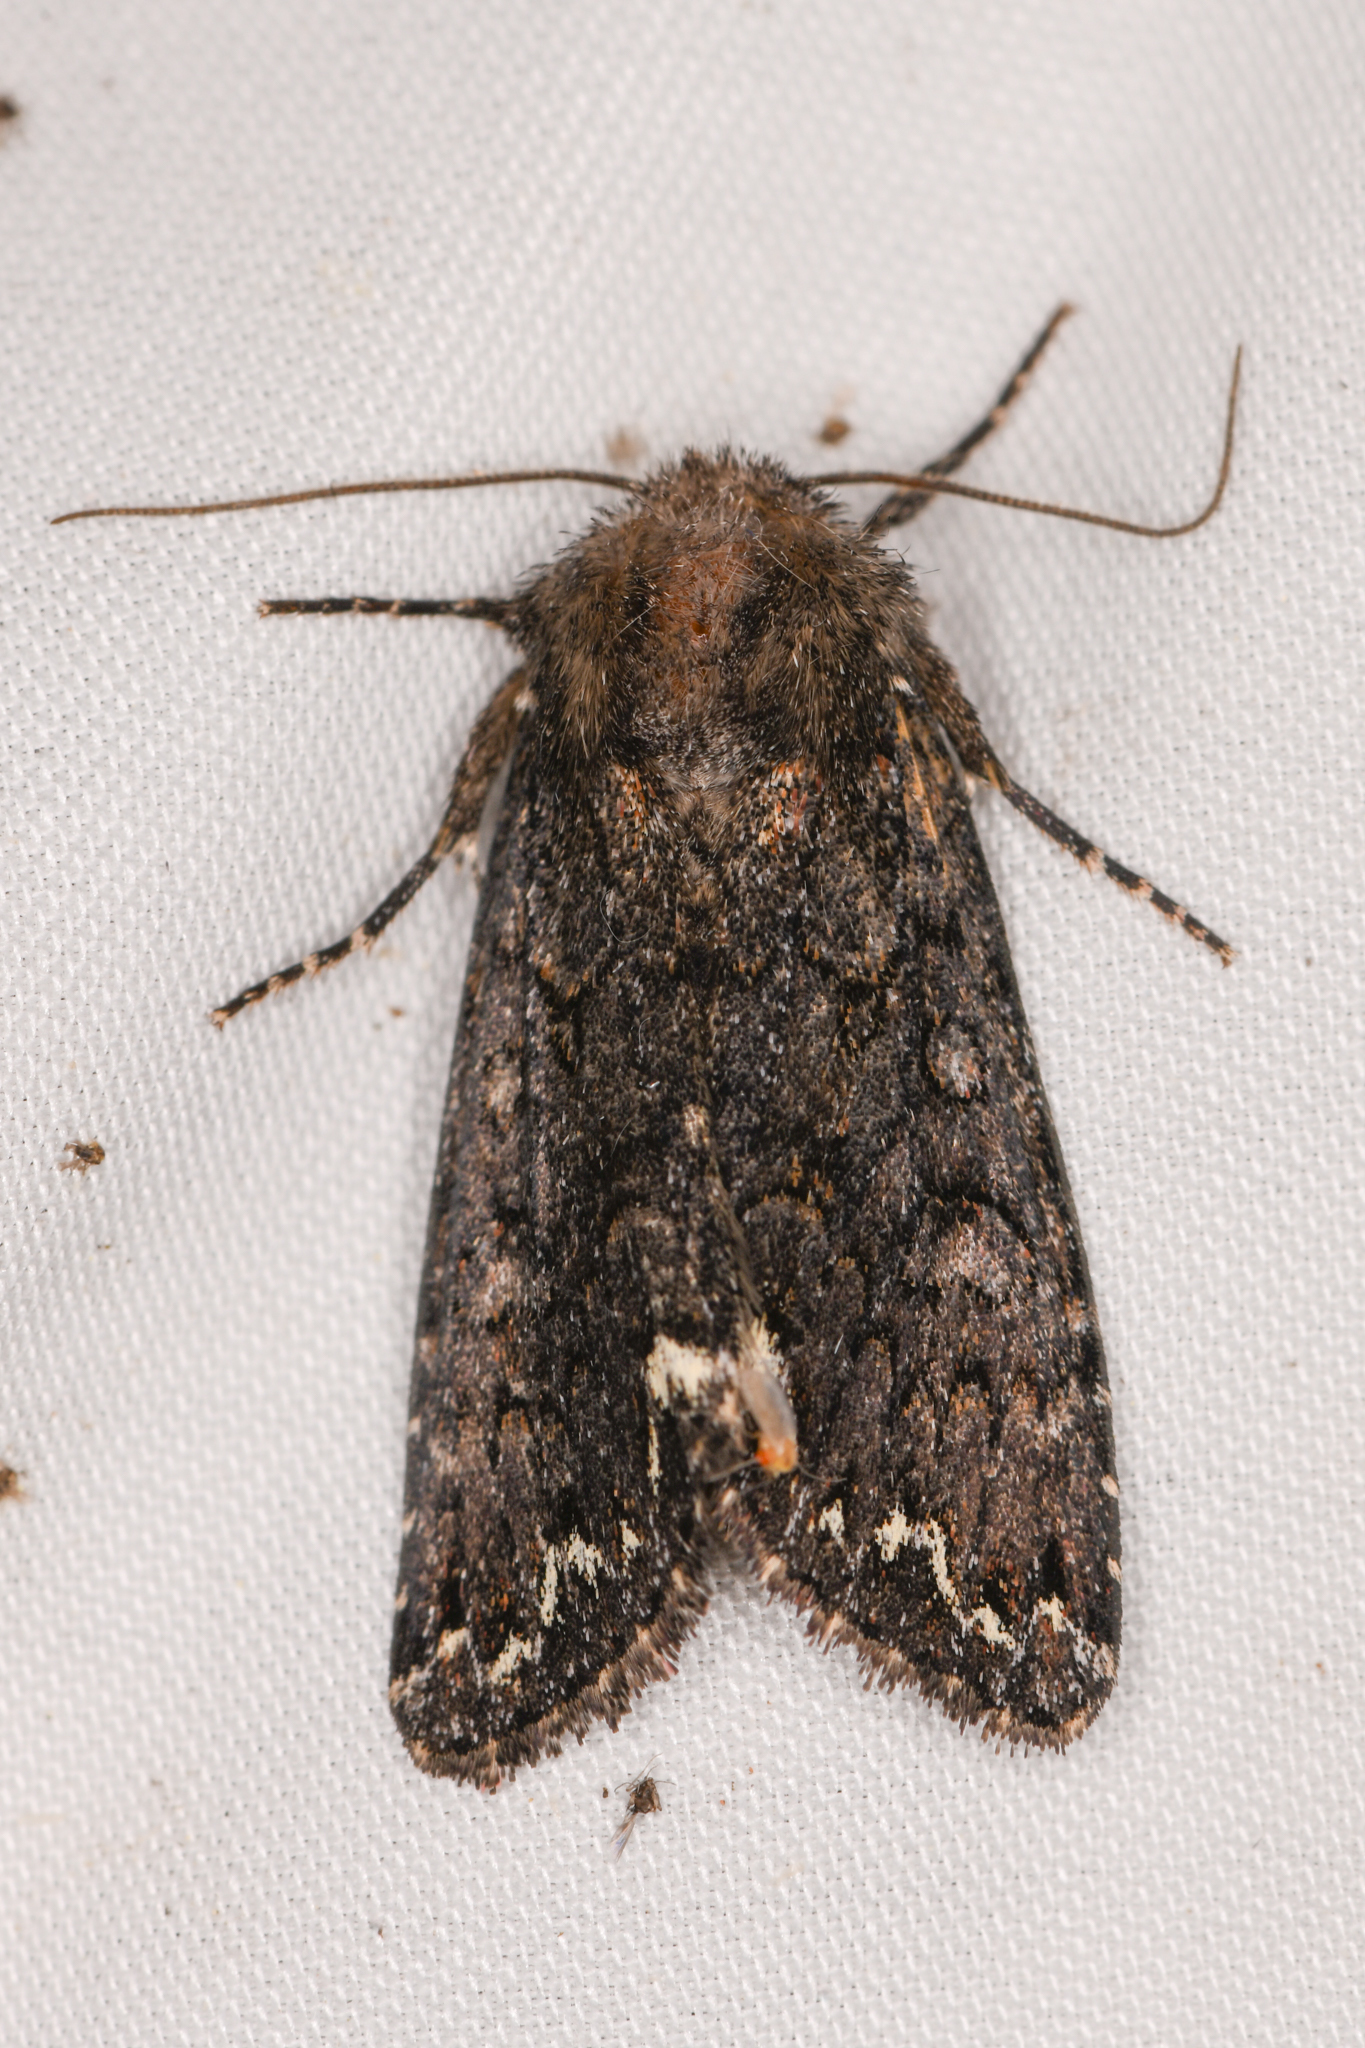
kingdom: Animalia
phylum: Arthropoda
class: Insecta
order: Lepidoptera
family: Noctuidae
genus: Melanchra
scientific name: Melanchra pulverulenta
